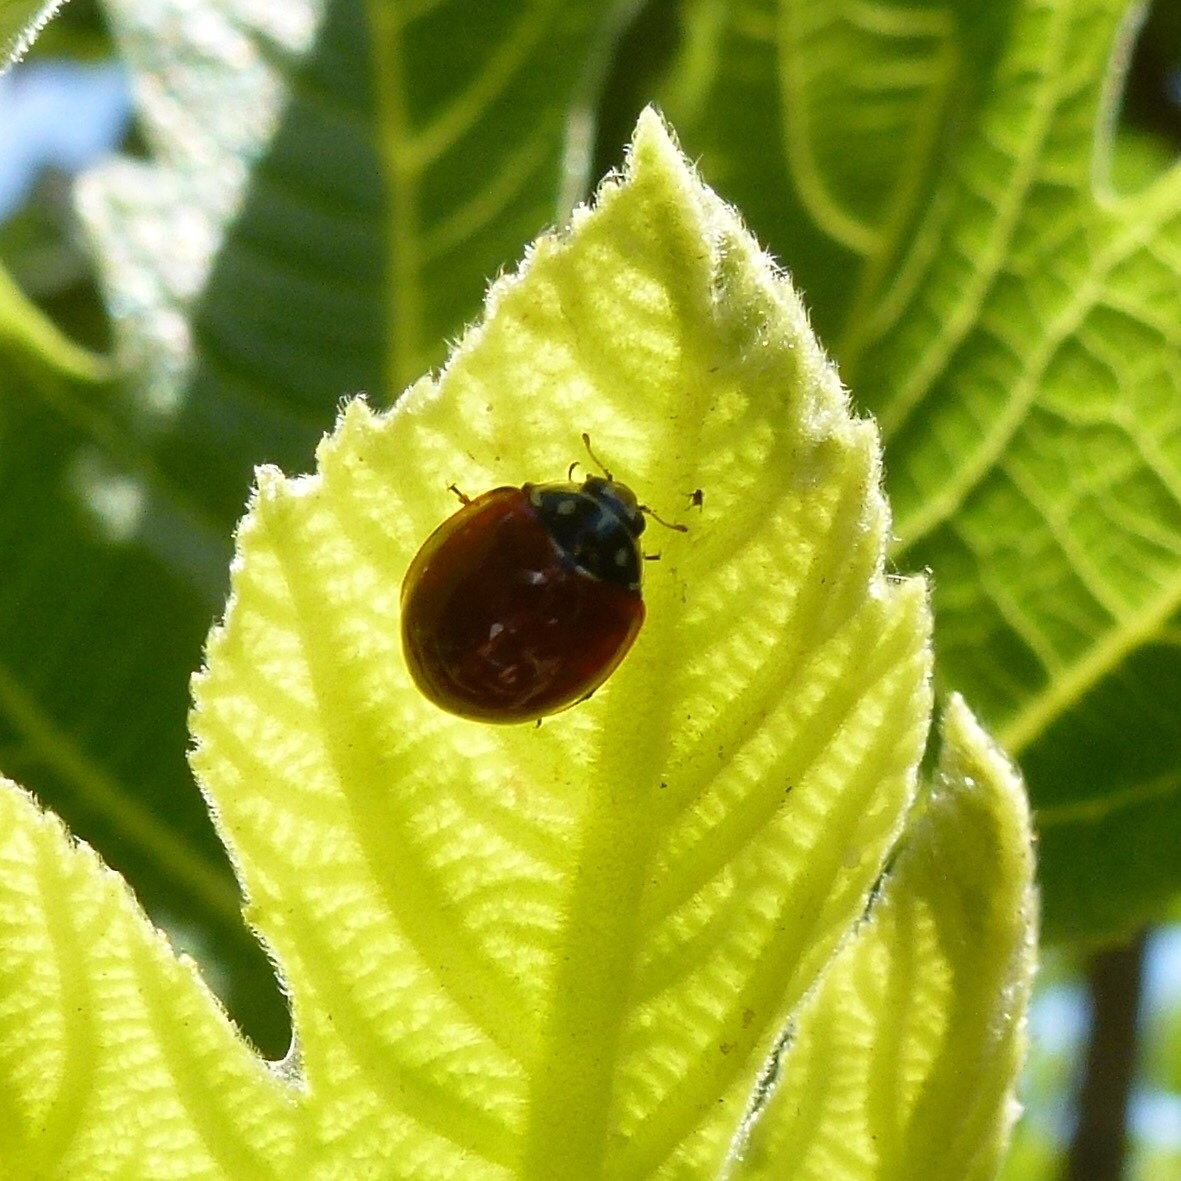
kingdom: Animalia
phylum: Arthropoda
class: Insecta
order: Coleoptera
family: Coccinellidae
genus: Cycloneda
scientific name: Cycloneda sanguinea
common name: Ladybird beetle
